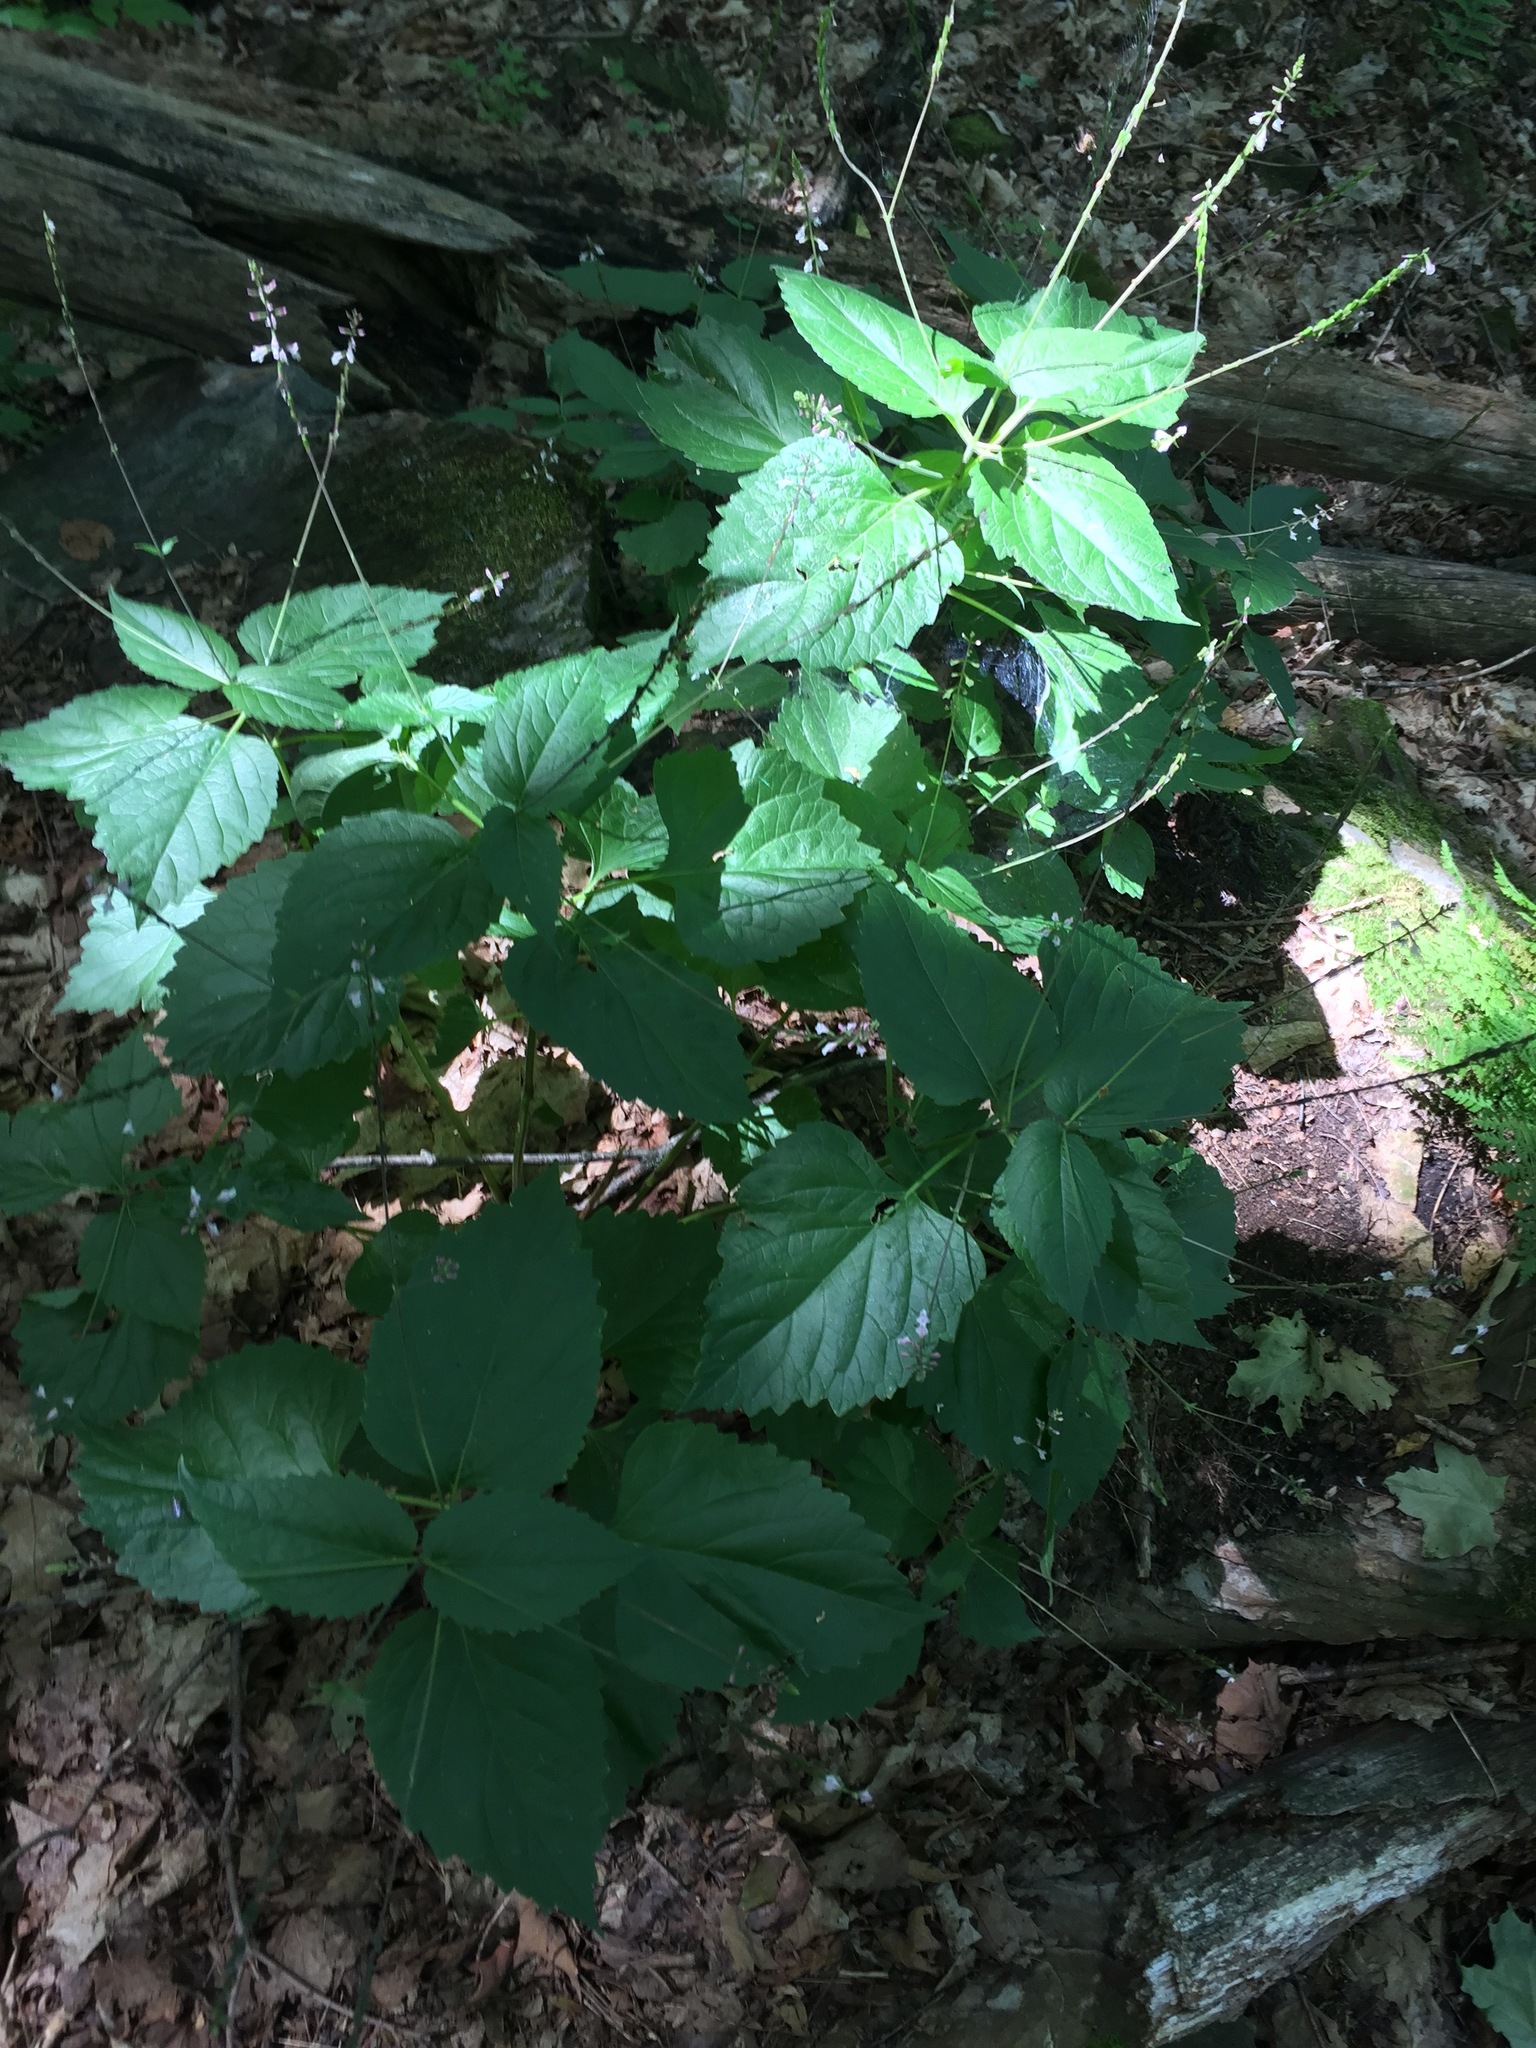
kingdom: Plantae
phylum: Tracheophyta
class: Magnoliopsida
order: Lamiales
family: Phrymaceae
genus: Phryma
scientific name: Phryma leptostachya
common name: American lopseed
